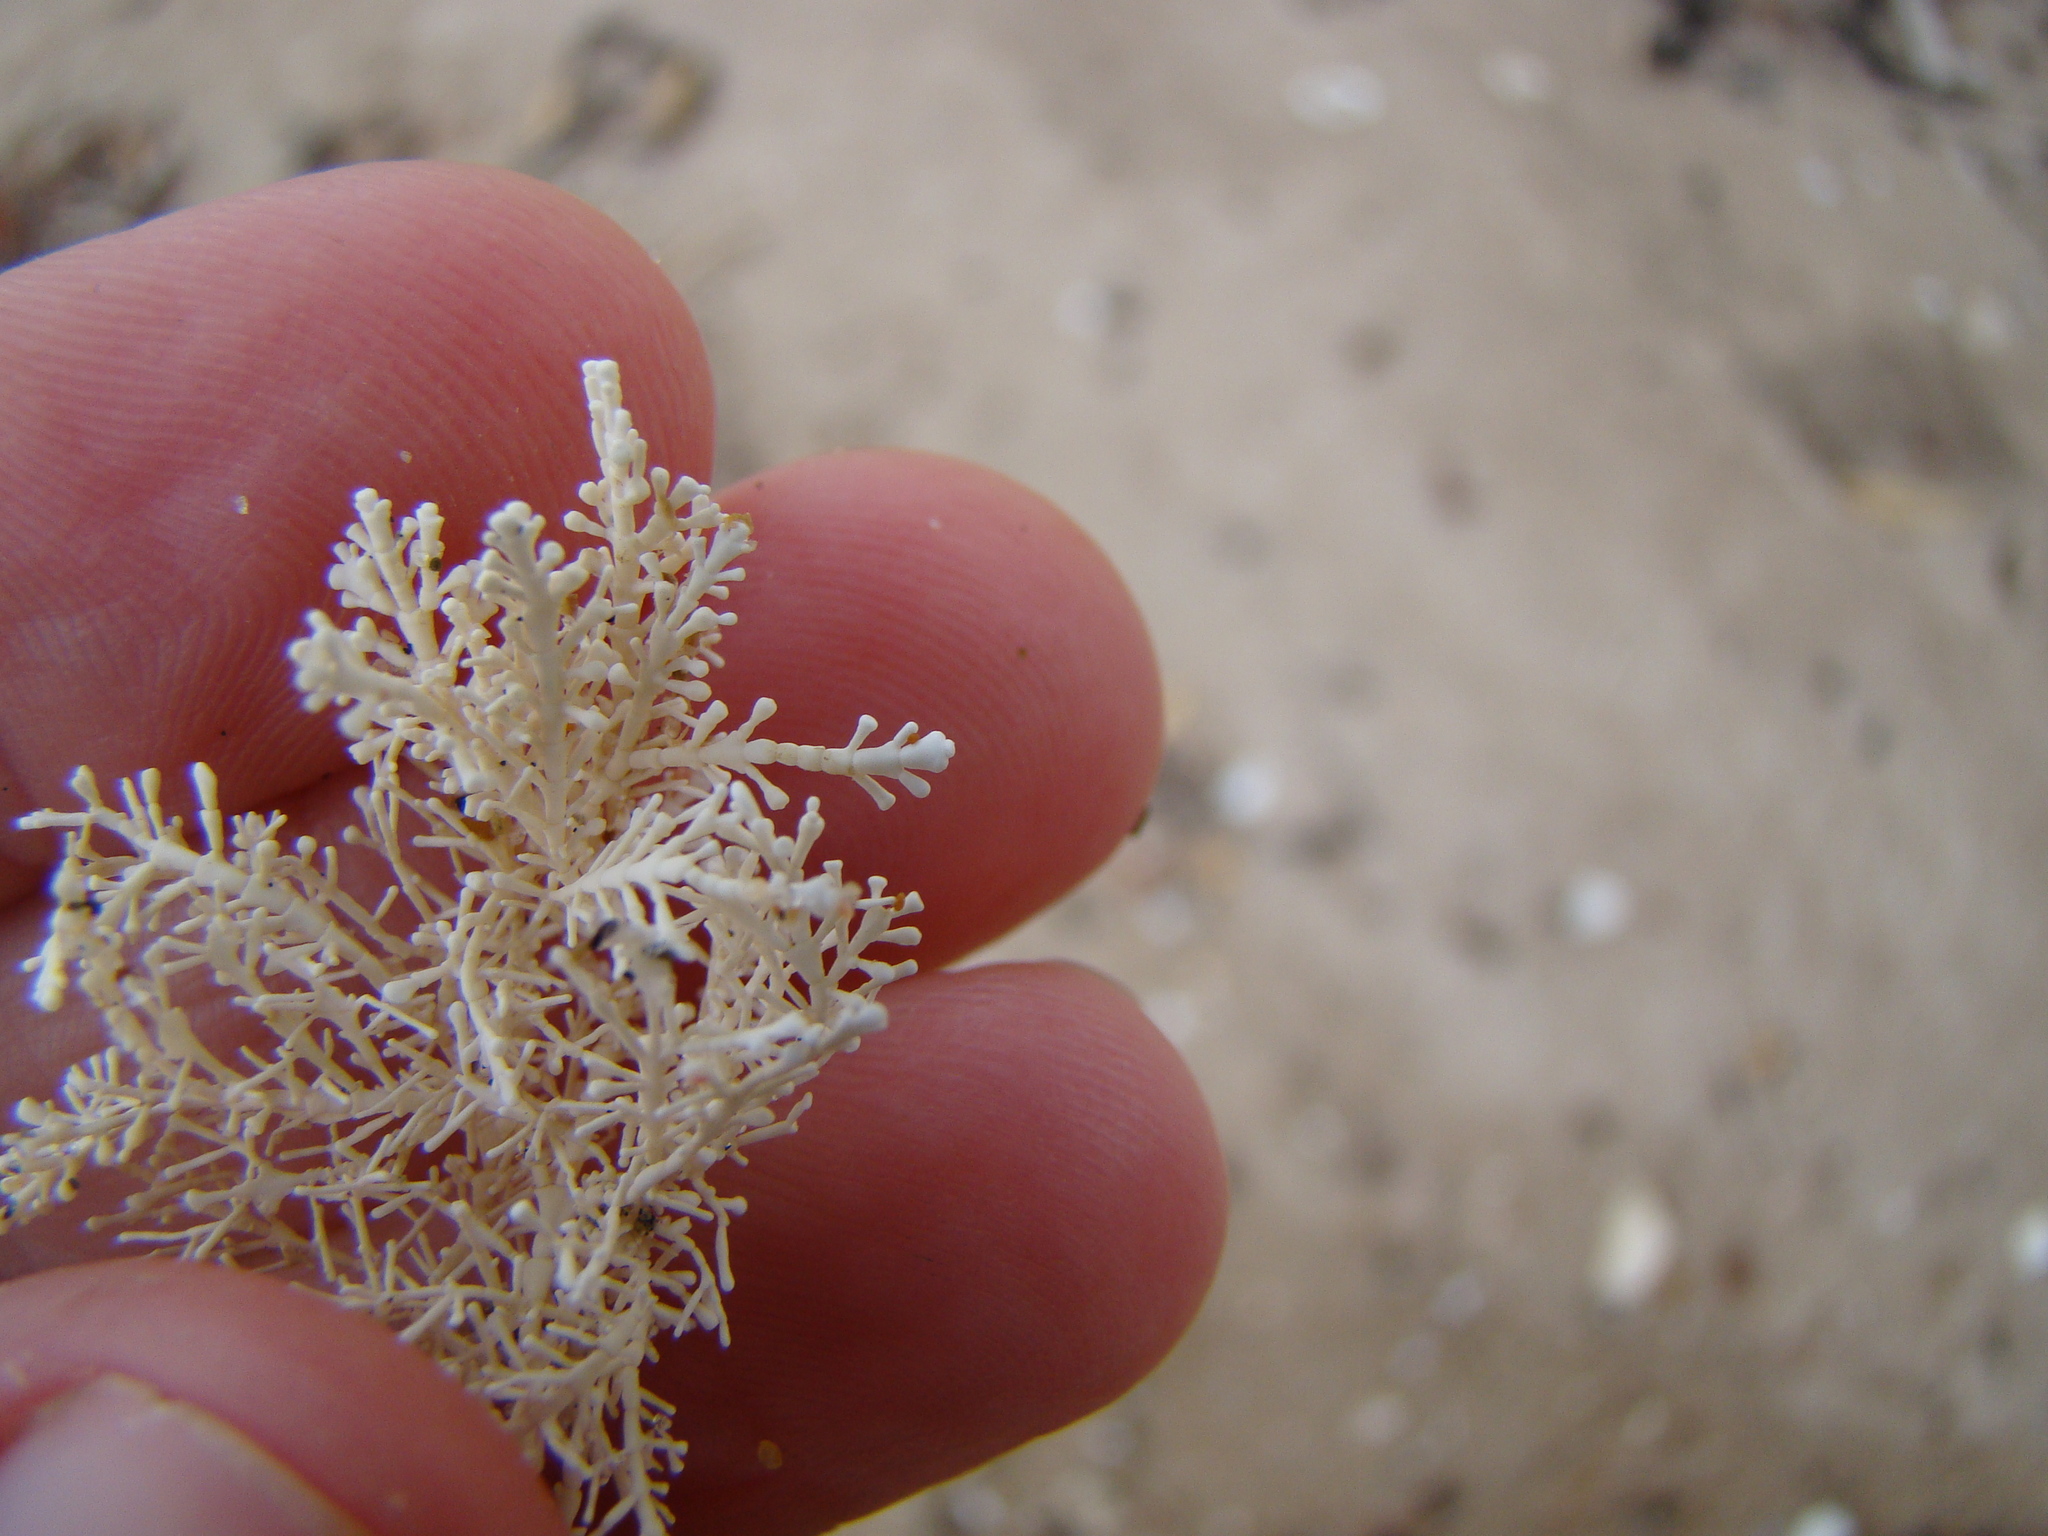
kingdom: Plantae
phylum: Rhodophyta
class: Florideophyceae
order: Corallinales
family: Corallinaceae
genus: Corallina
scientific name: Corallina officinalis
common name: Coral weed
